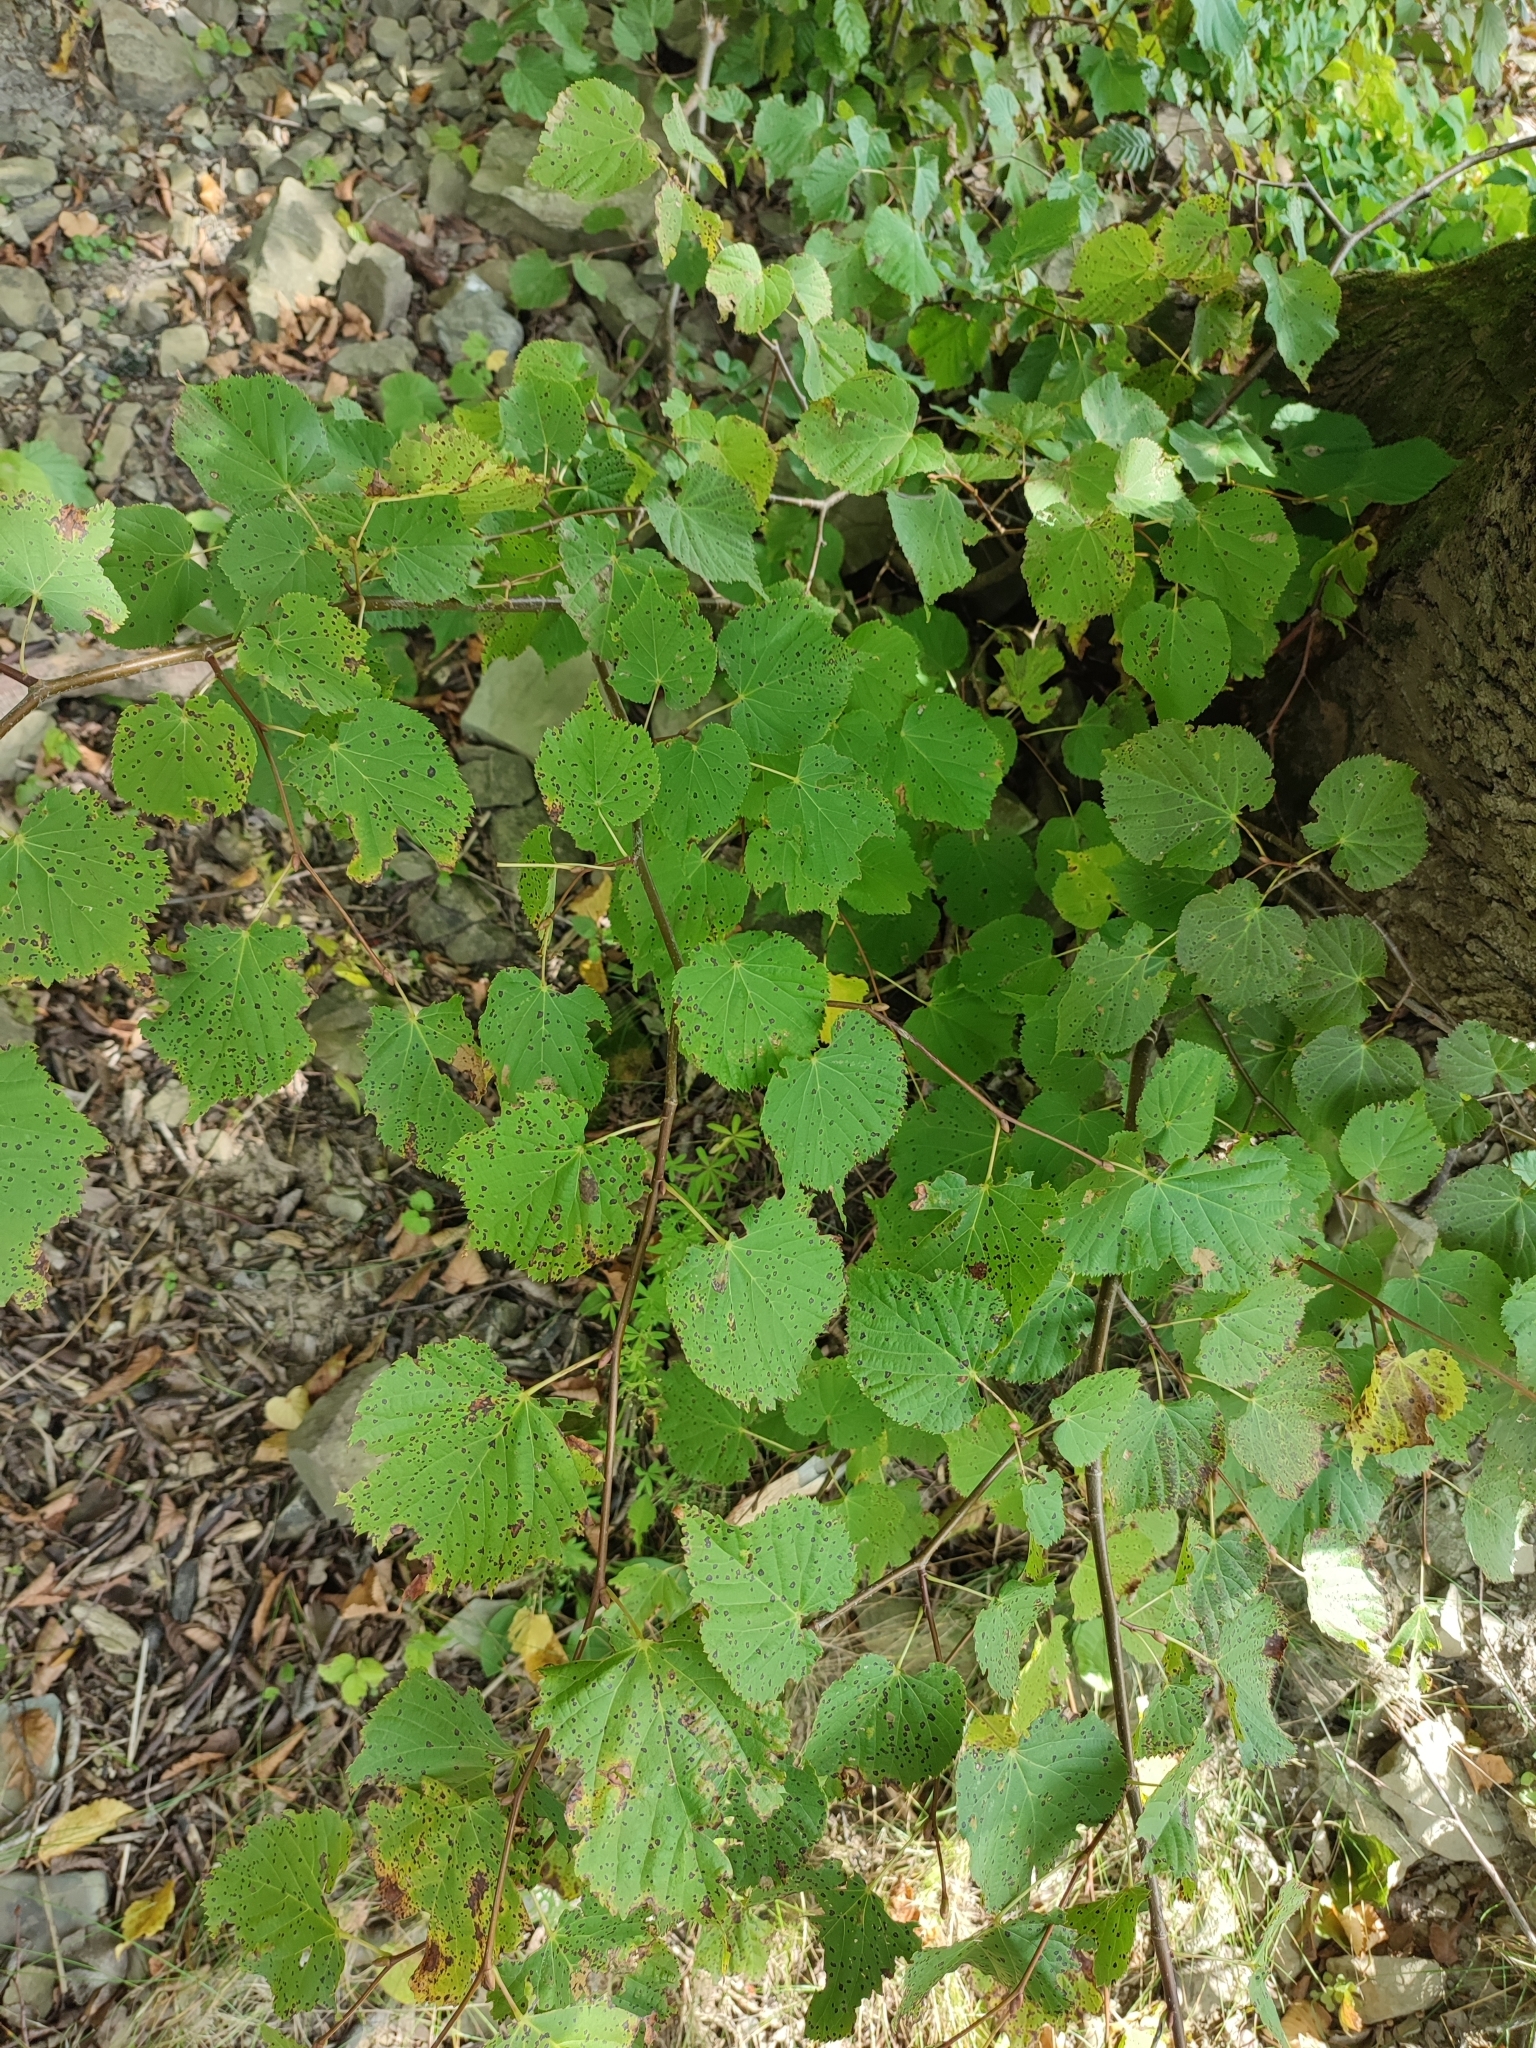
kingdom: Fungi
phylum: Ascomycota
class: Dothideomycetes
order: Mycosphaerellales
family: Mycosphaerellaceae
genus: Paracercosporidium
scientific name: Paracercosporidium microsorum
